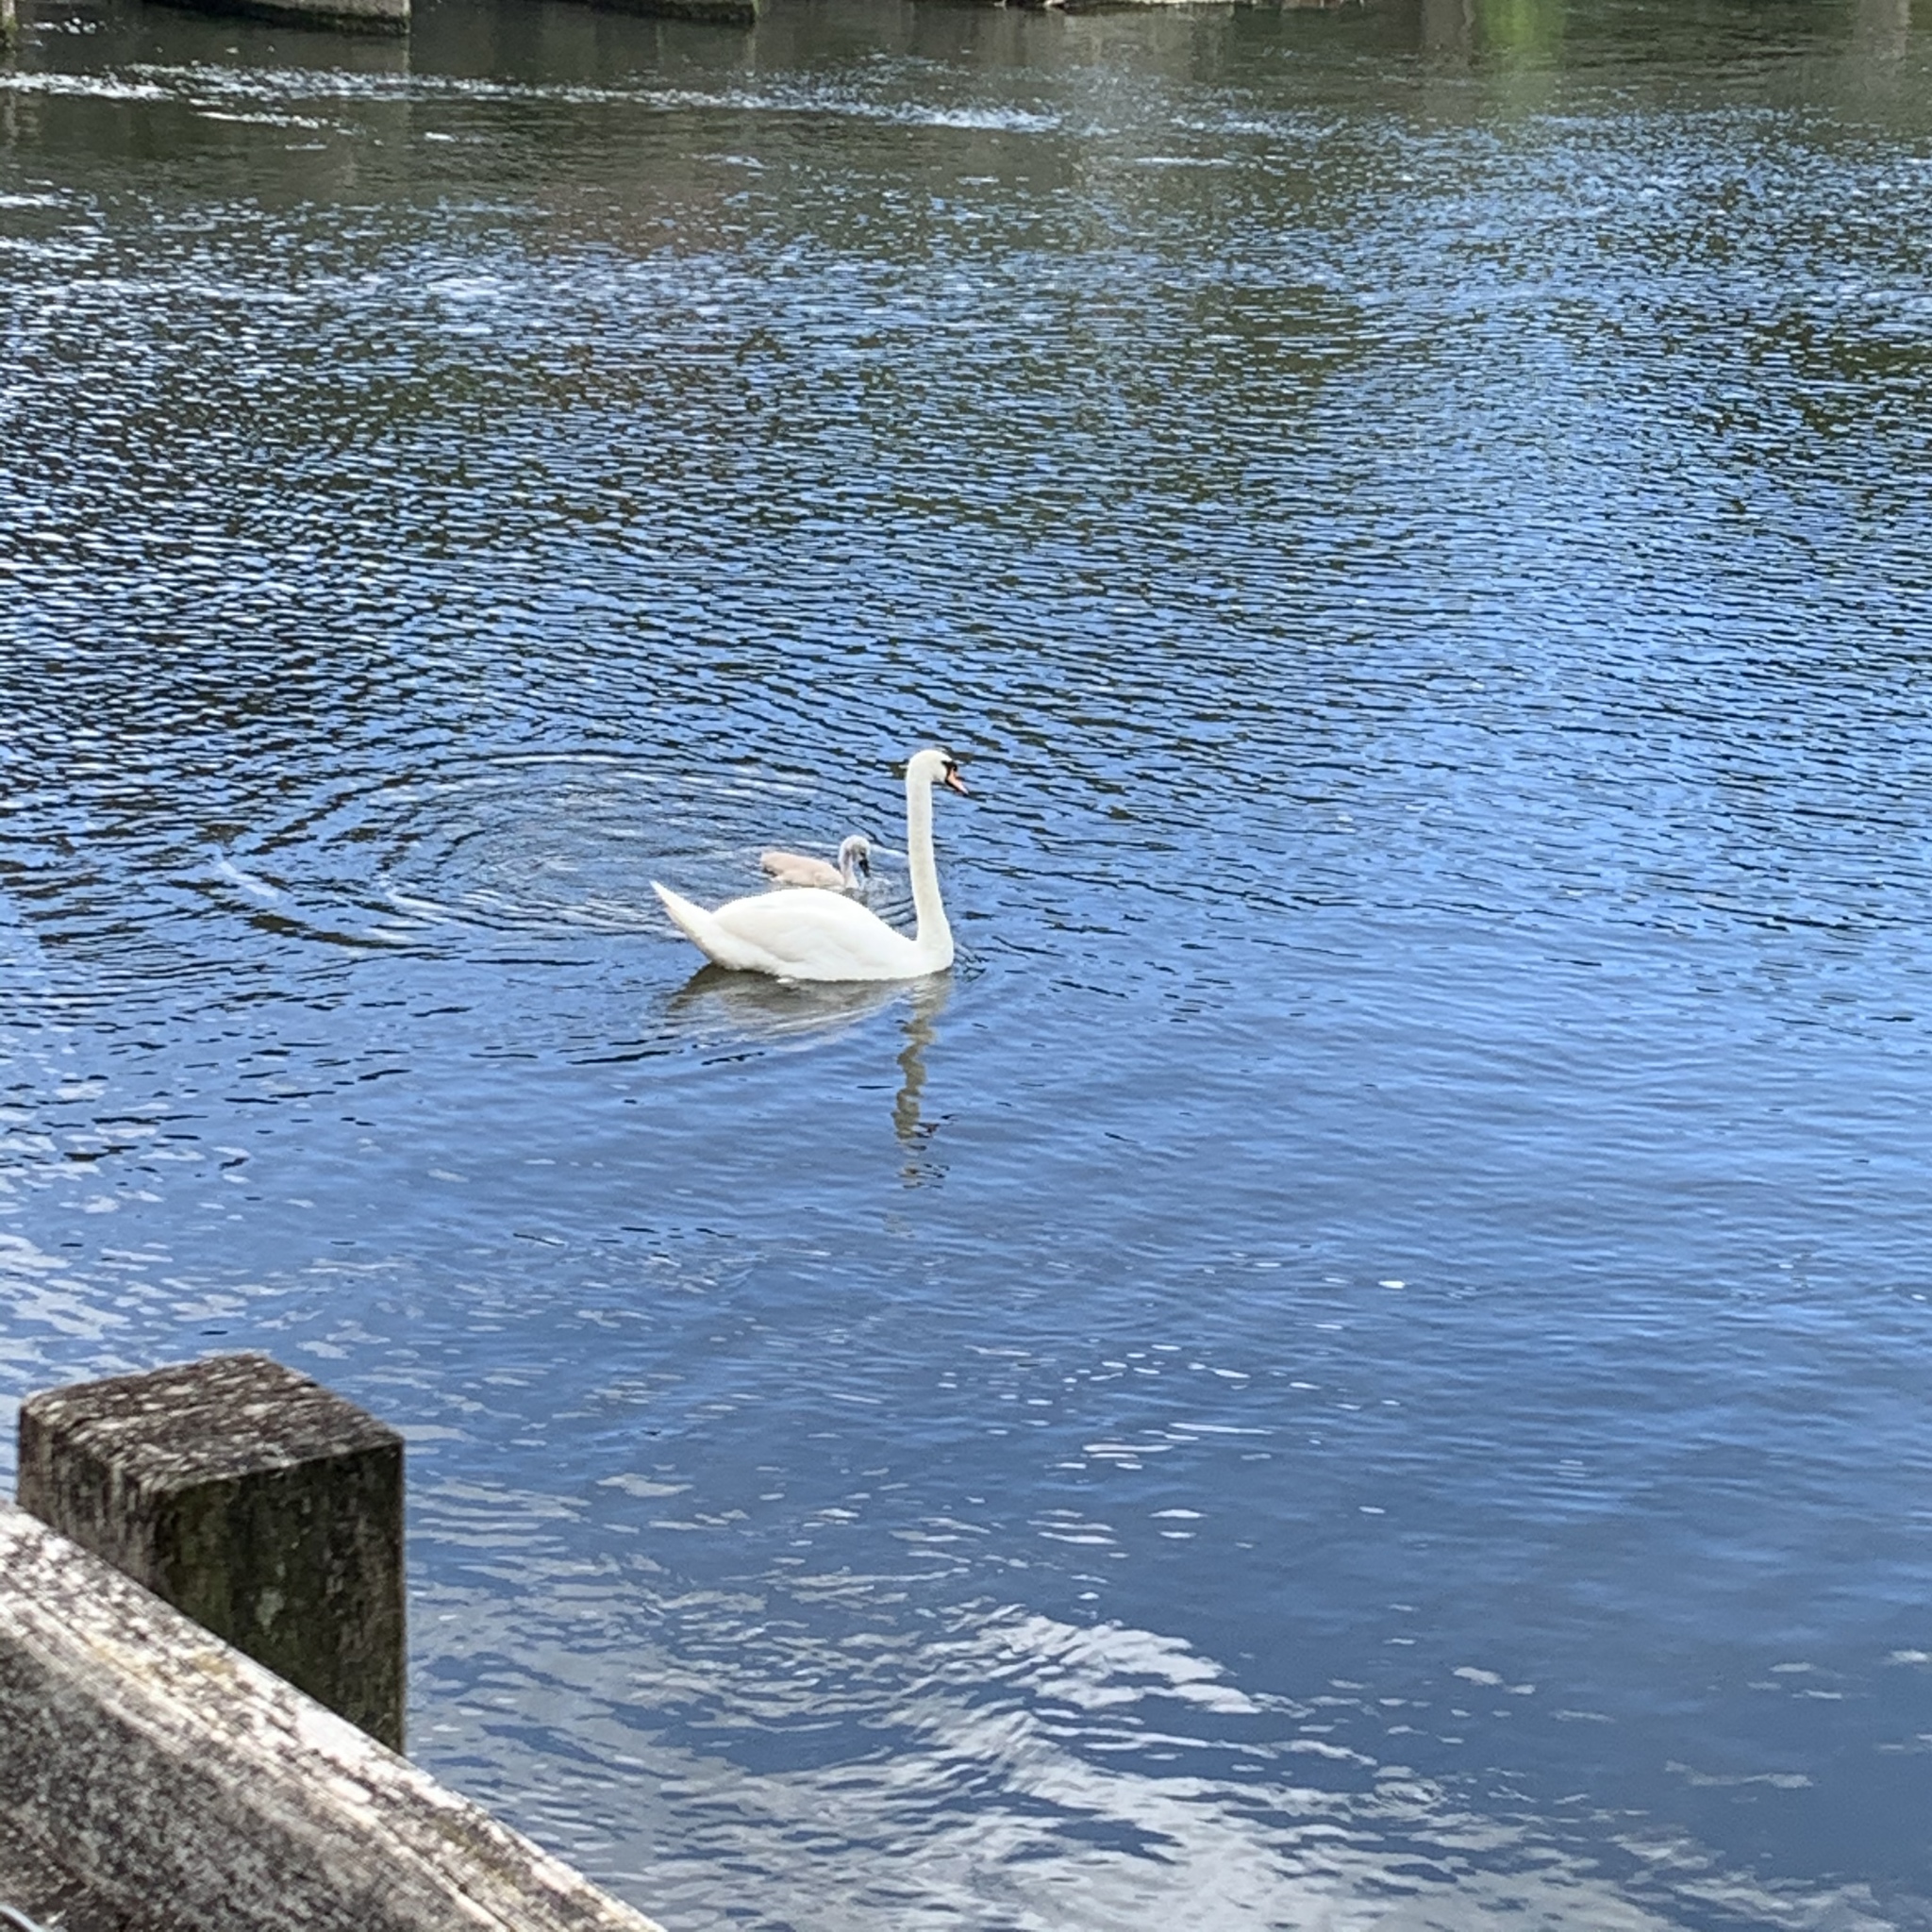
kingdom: Animalia
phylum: Chordata
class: Aves
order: Anseriformes
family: Anatidae
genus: Cygnus
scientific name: Cygnus olor
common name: Mute swan
